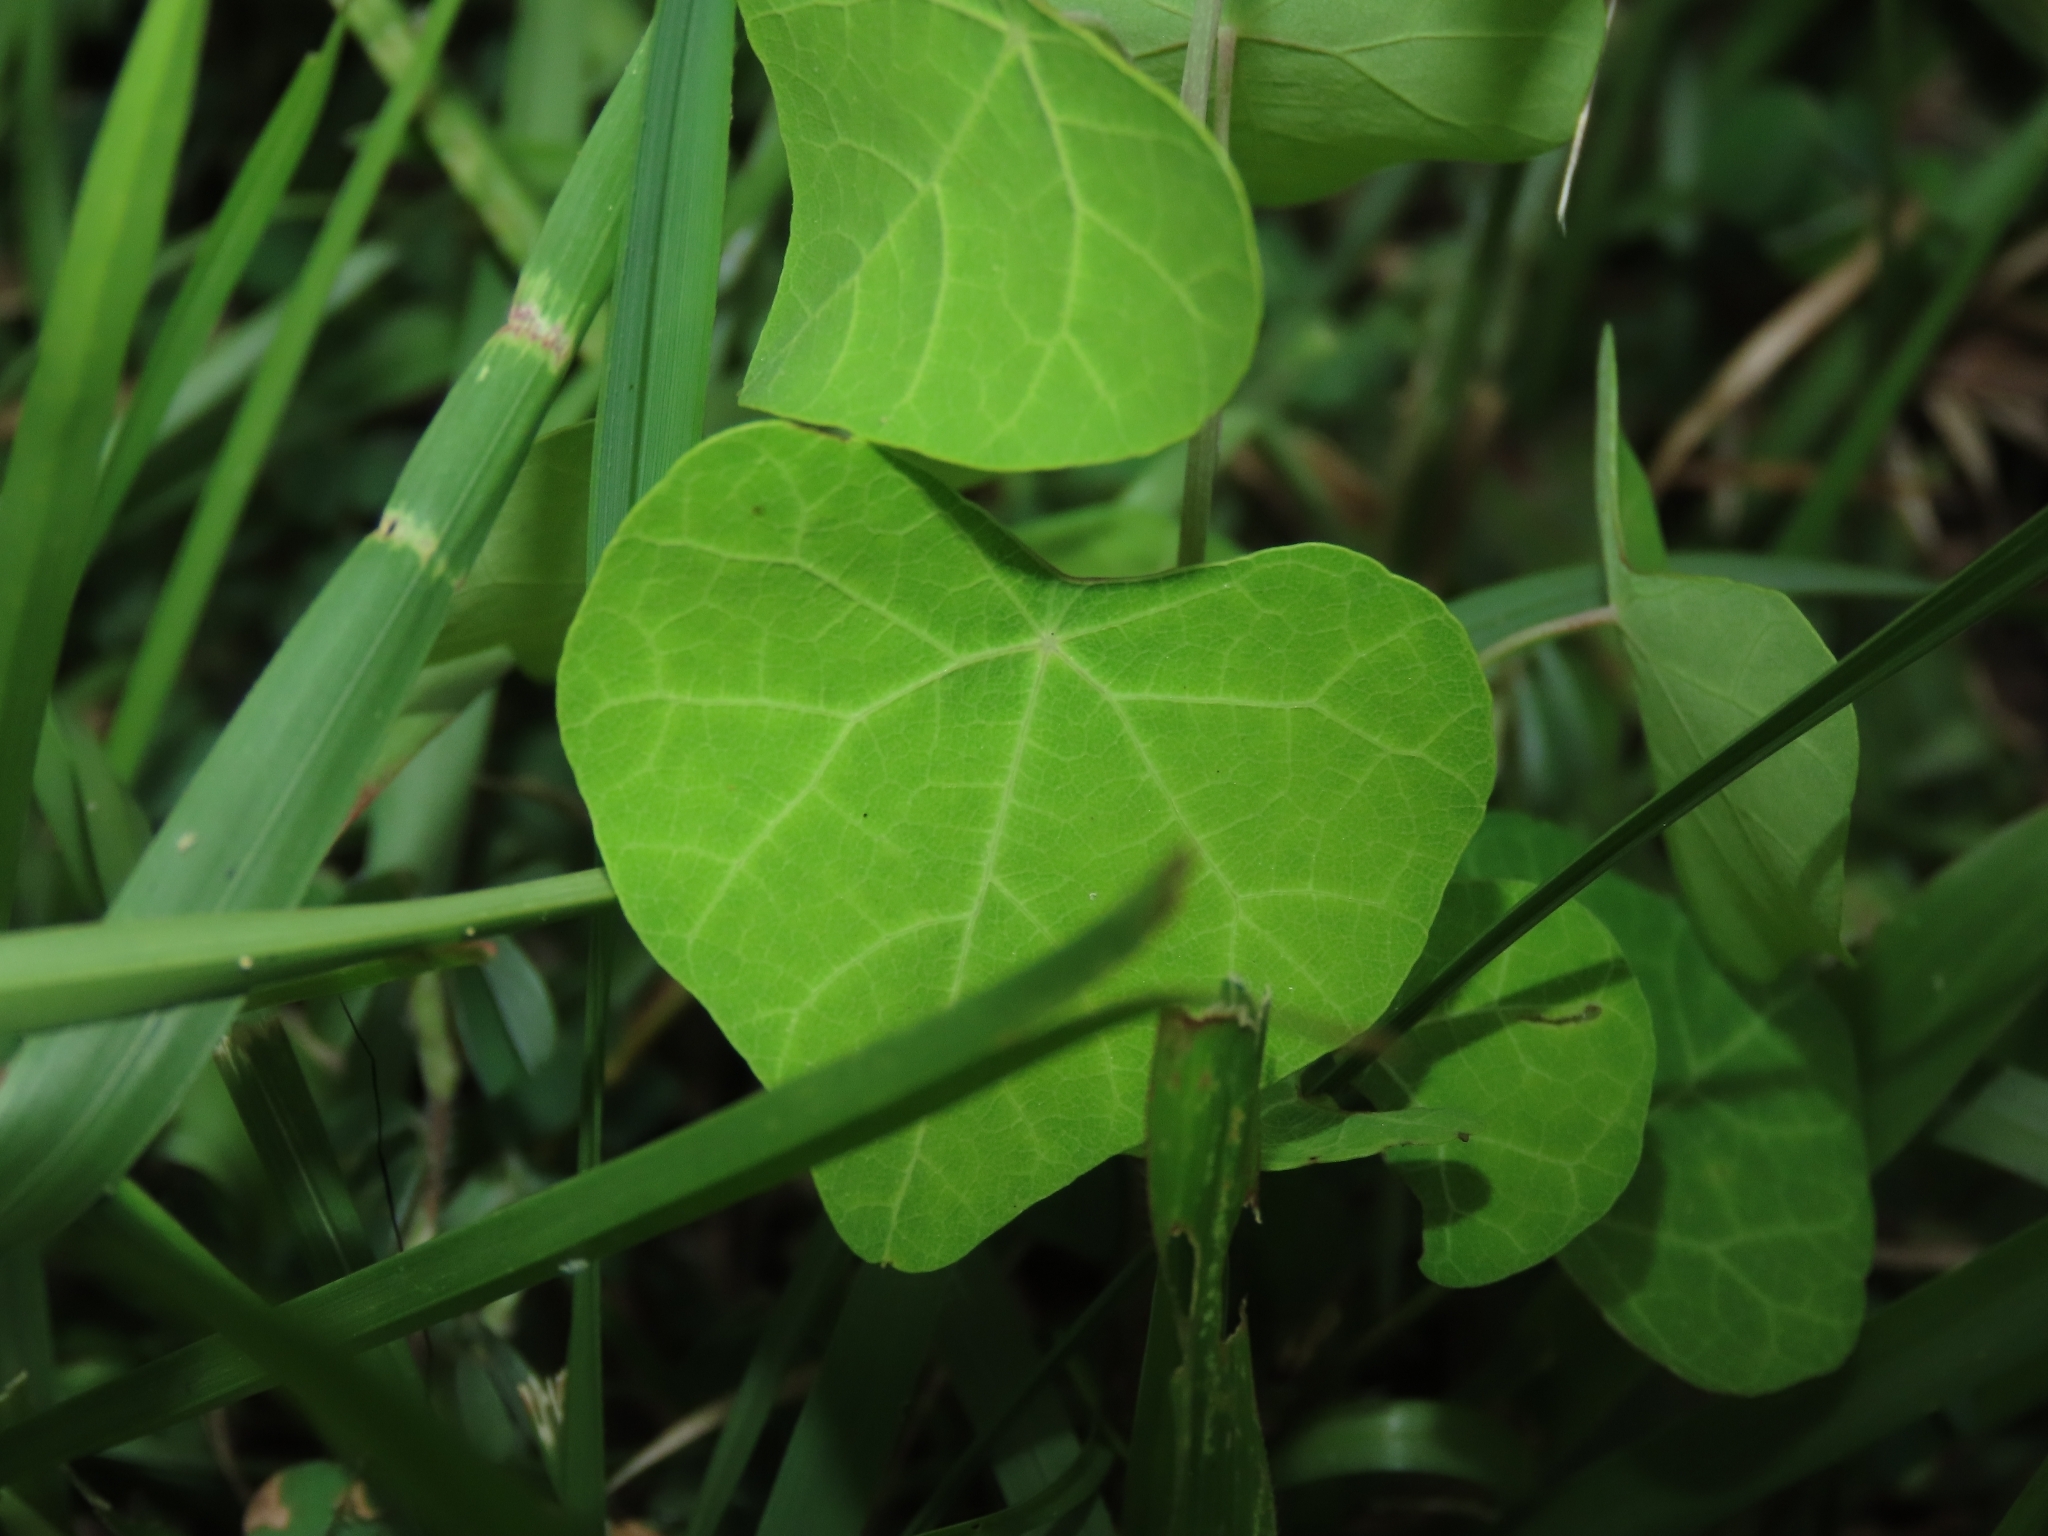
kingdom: Plantae
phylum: Tracheophyta
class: Magnoliopsida
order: Ranunculales
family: Menispermaceae
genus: Stephania
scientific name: Stephania tetrandra
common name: Stephania-root
